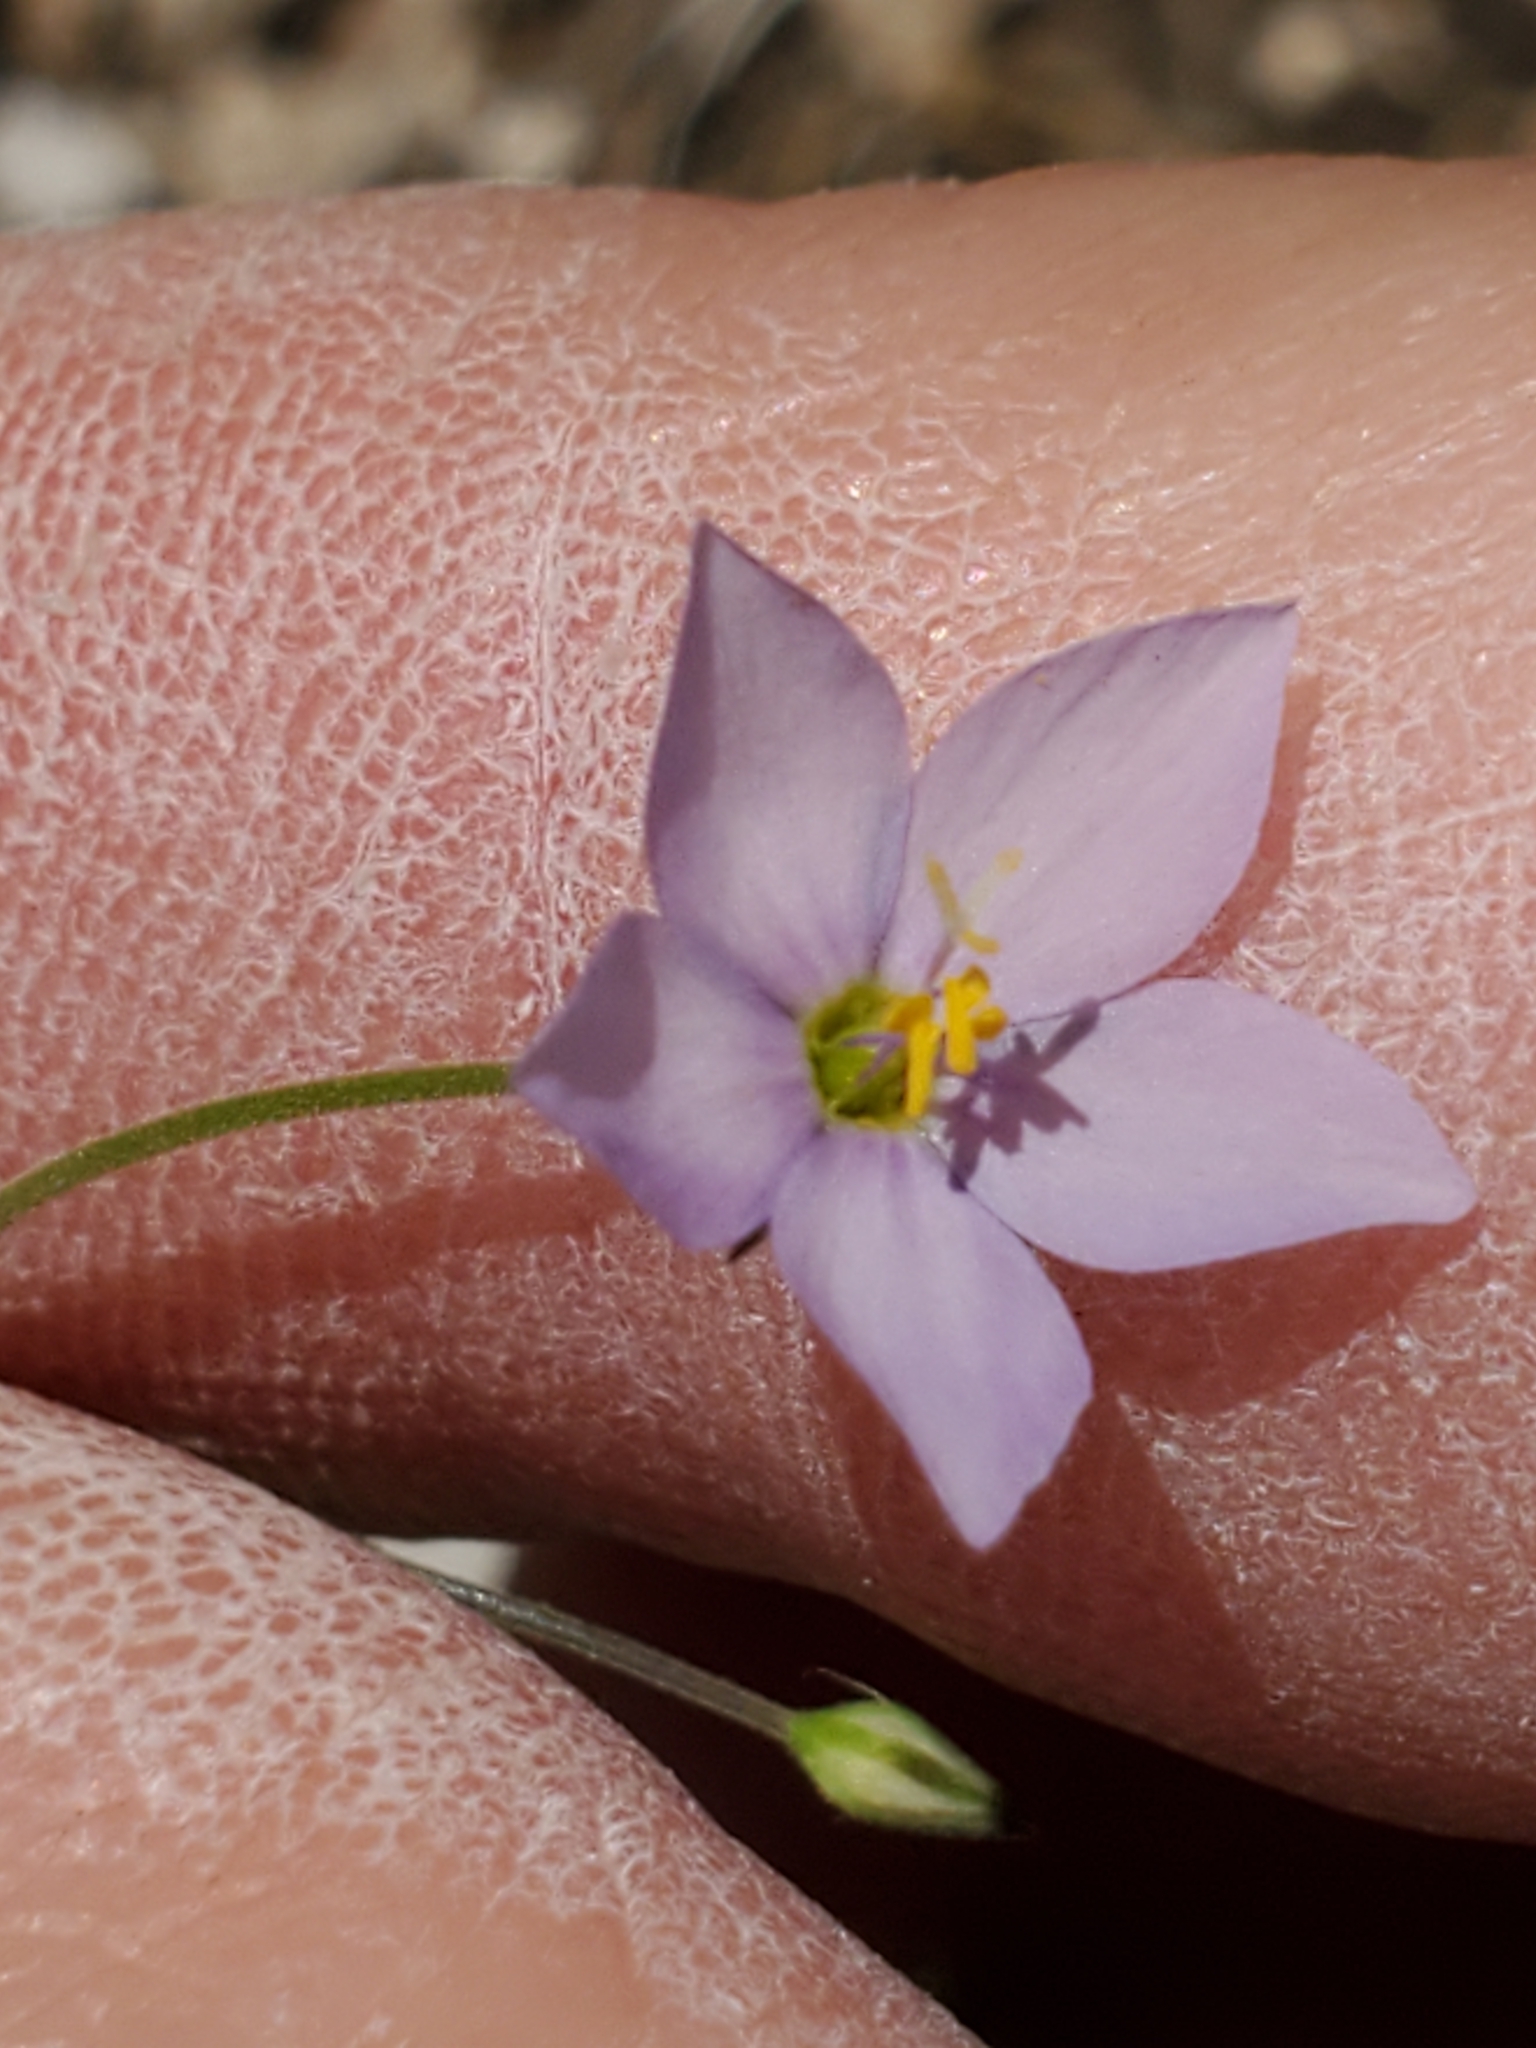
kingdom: Plantae
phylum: Tracheophyta
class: Magnoliopsida
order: Ericales
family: Polemoniaceae
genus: Giliastrum
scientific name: Giliastrum incisum
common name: Splitleaf gilia
